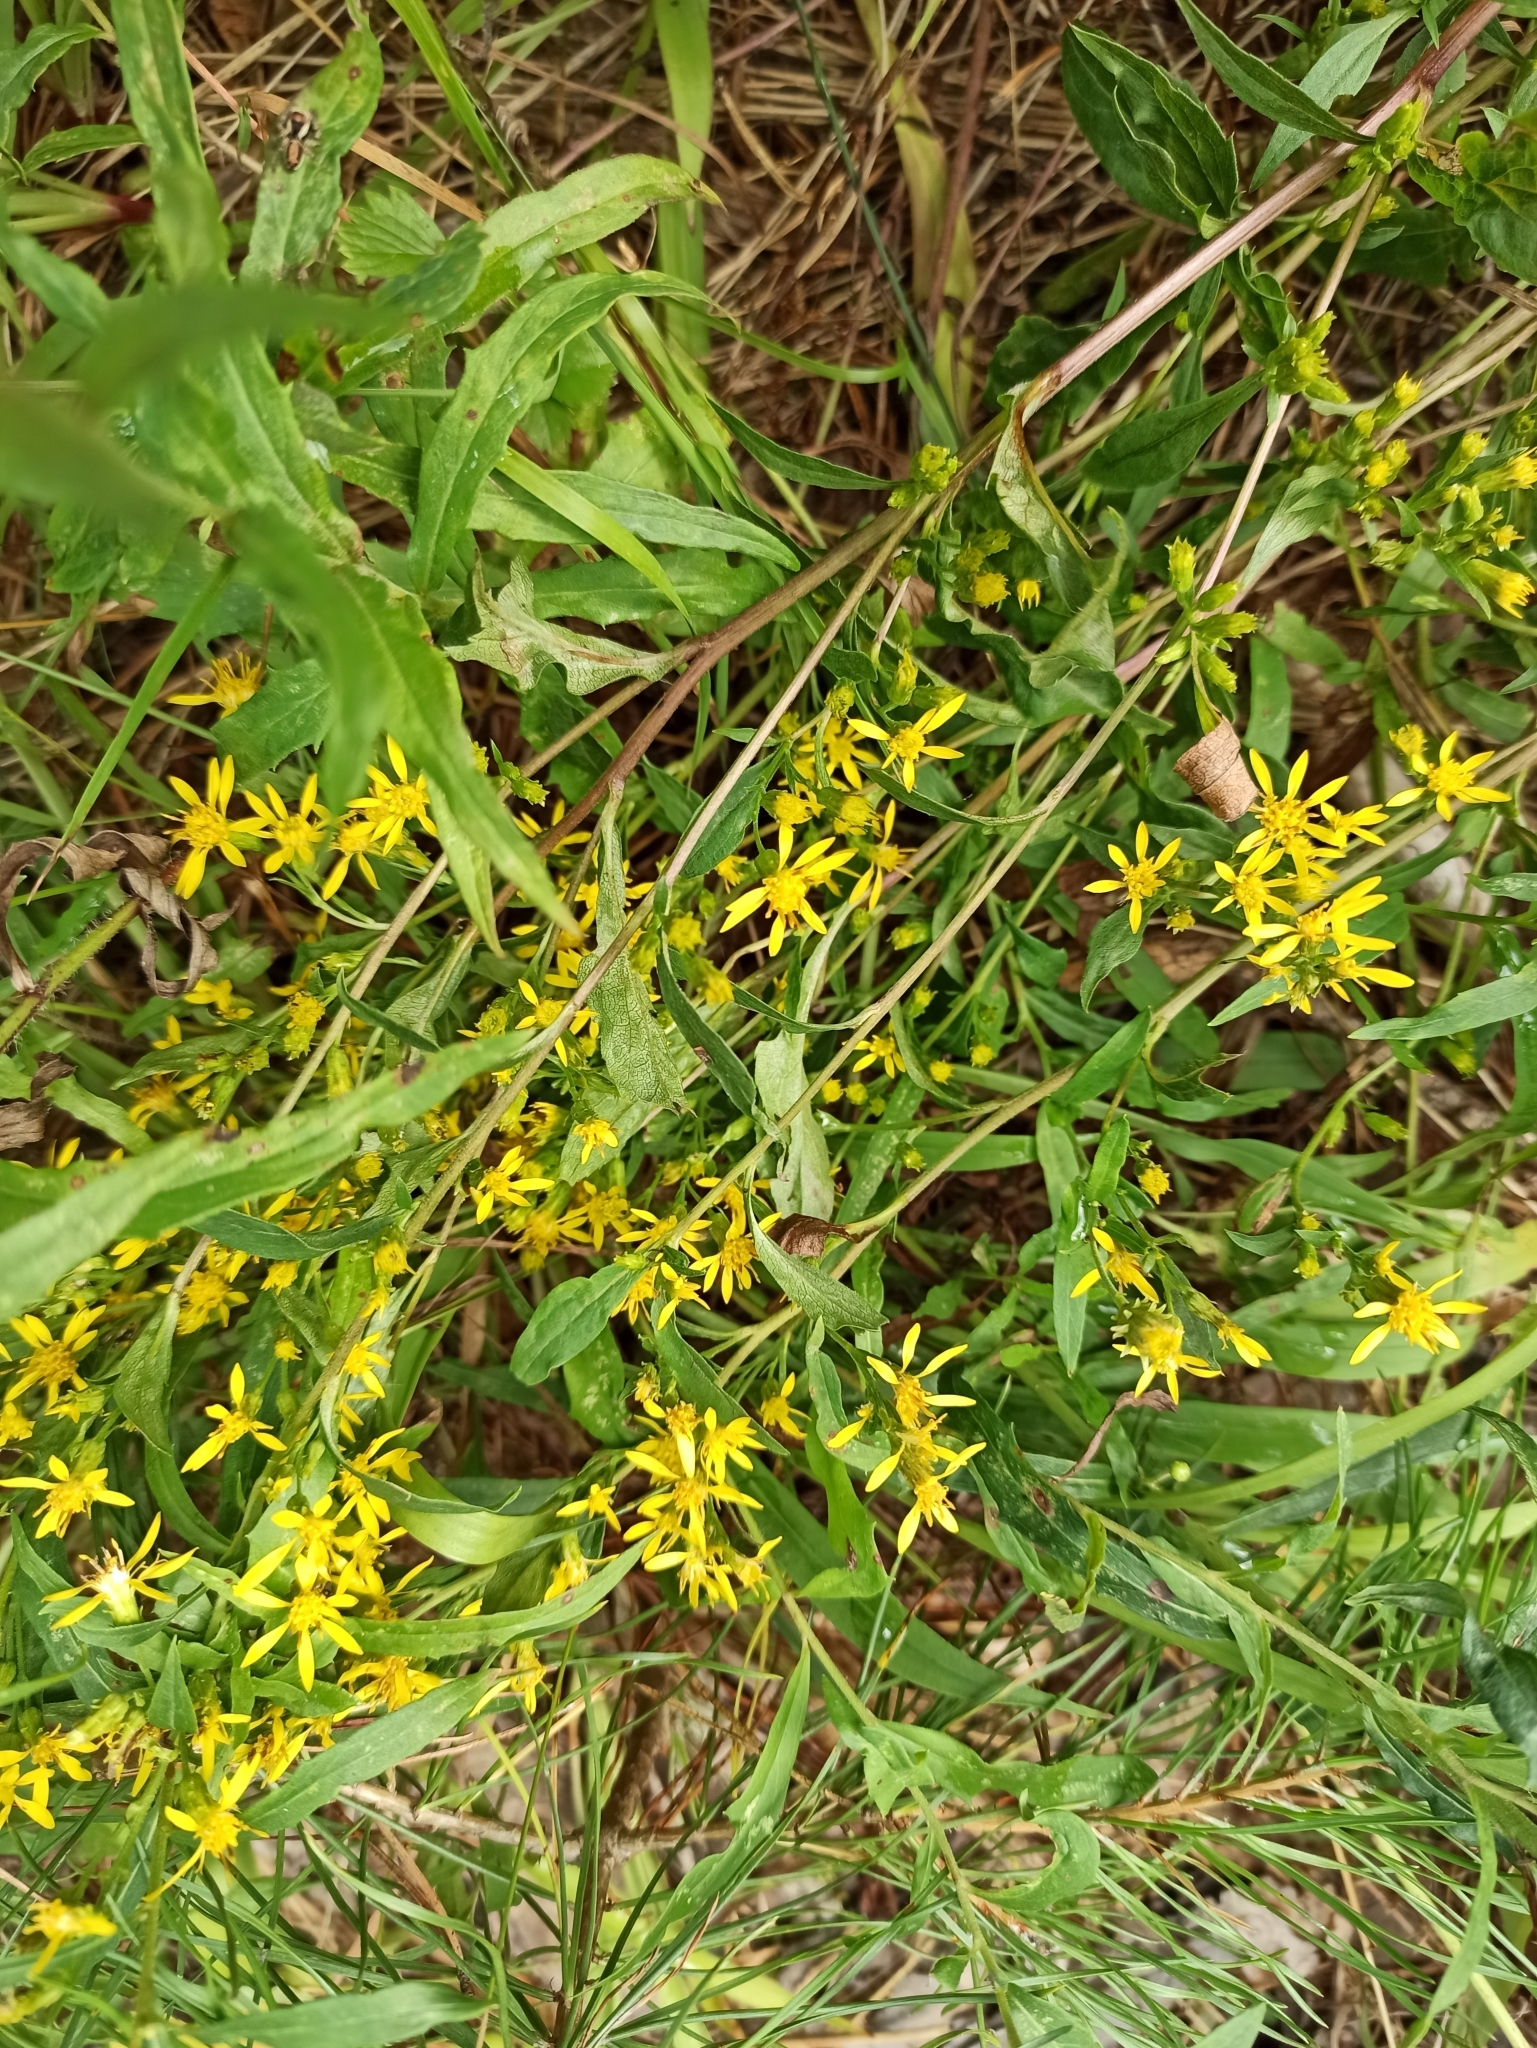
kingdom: Plantae
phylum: Tracheophyta
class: Magnoliopsida
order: Asterales
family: Asteraceae
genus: Solidago
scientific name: Solidago virgaurea
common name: Goldenrod
